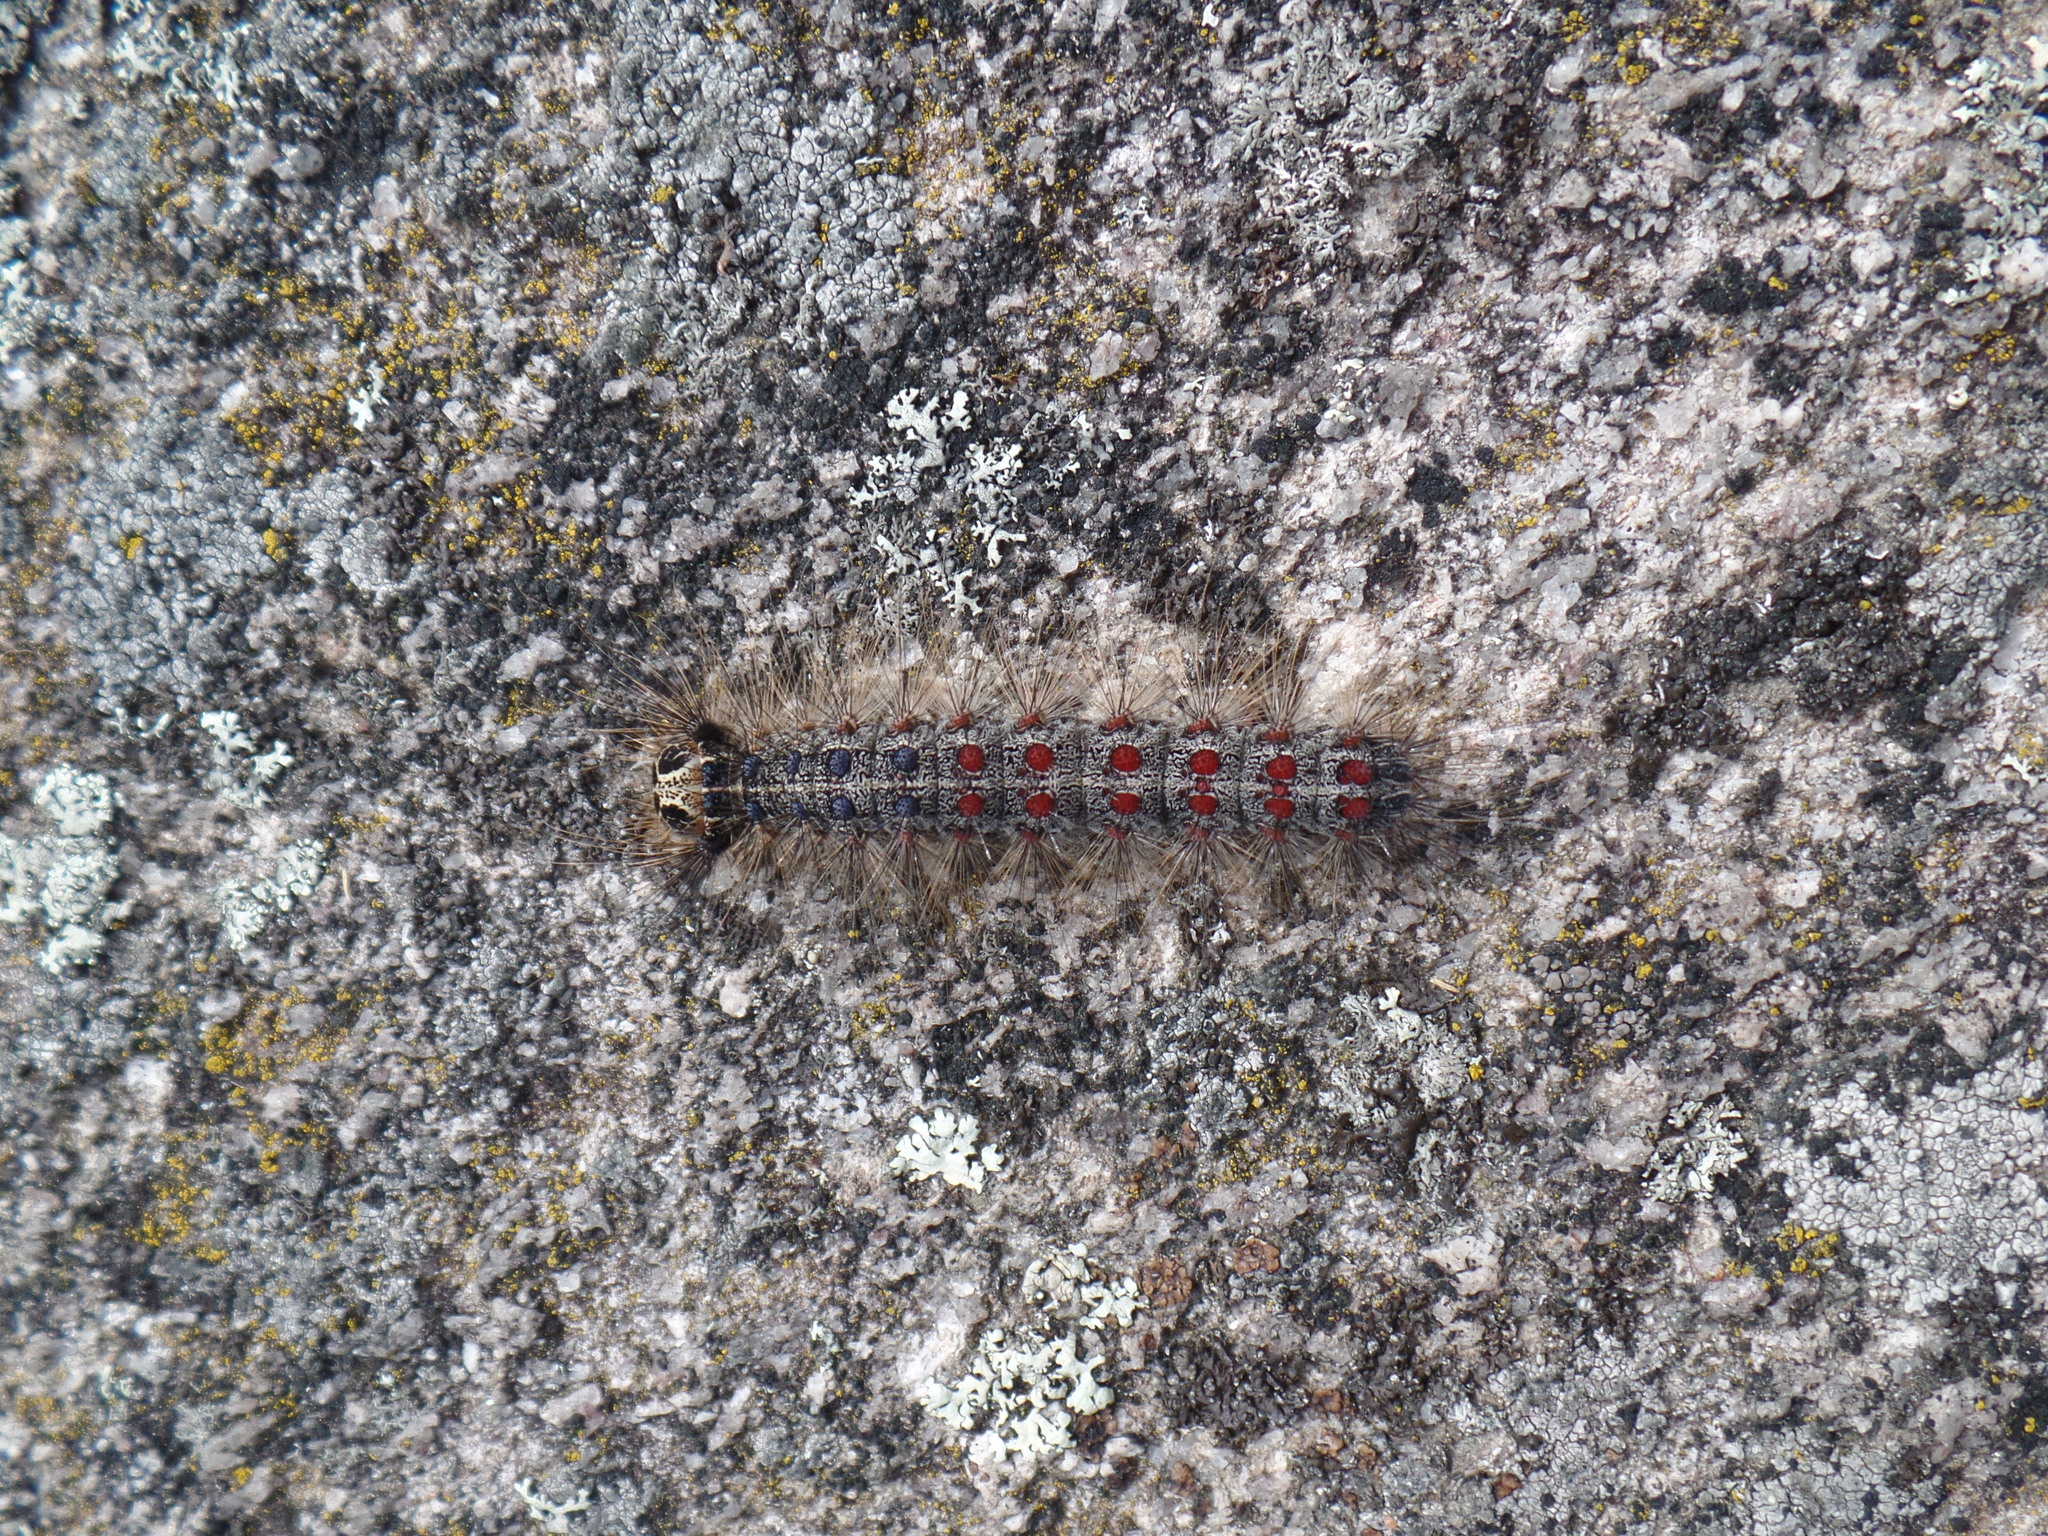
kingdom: Animalia
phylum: Arthropoda
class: Insecta
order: Lepidoptera
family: Erebidae
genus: Lymantria
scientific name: Lymantria dispar
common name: Gypsy moth
